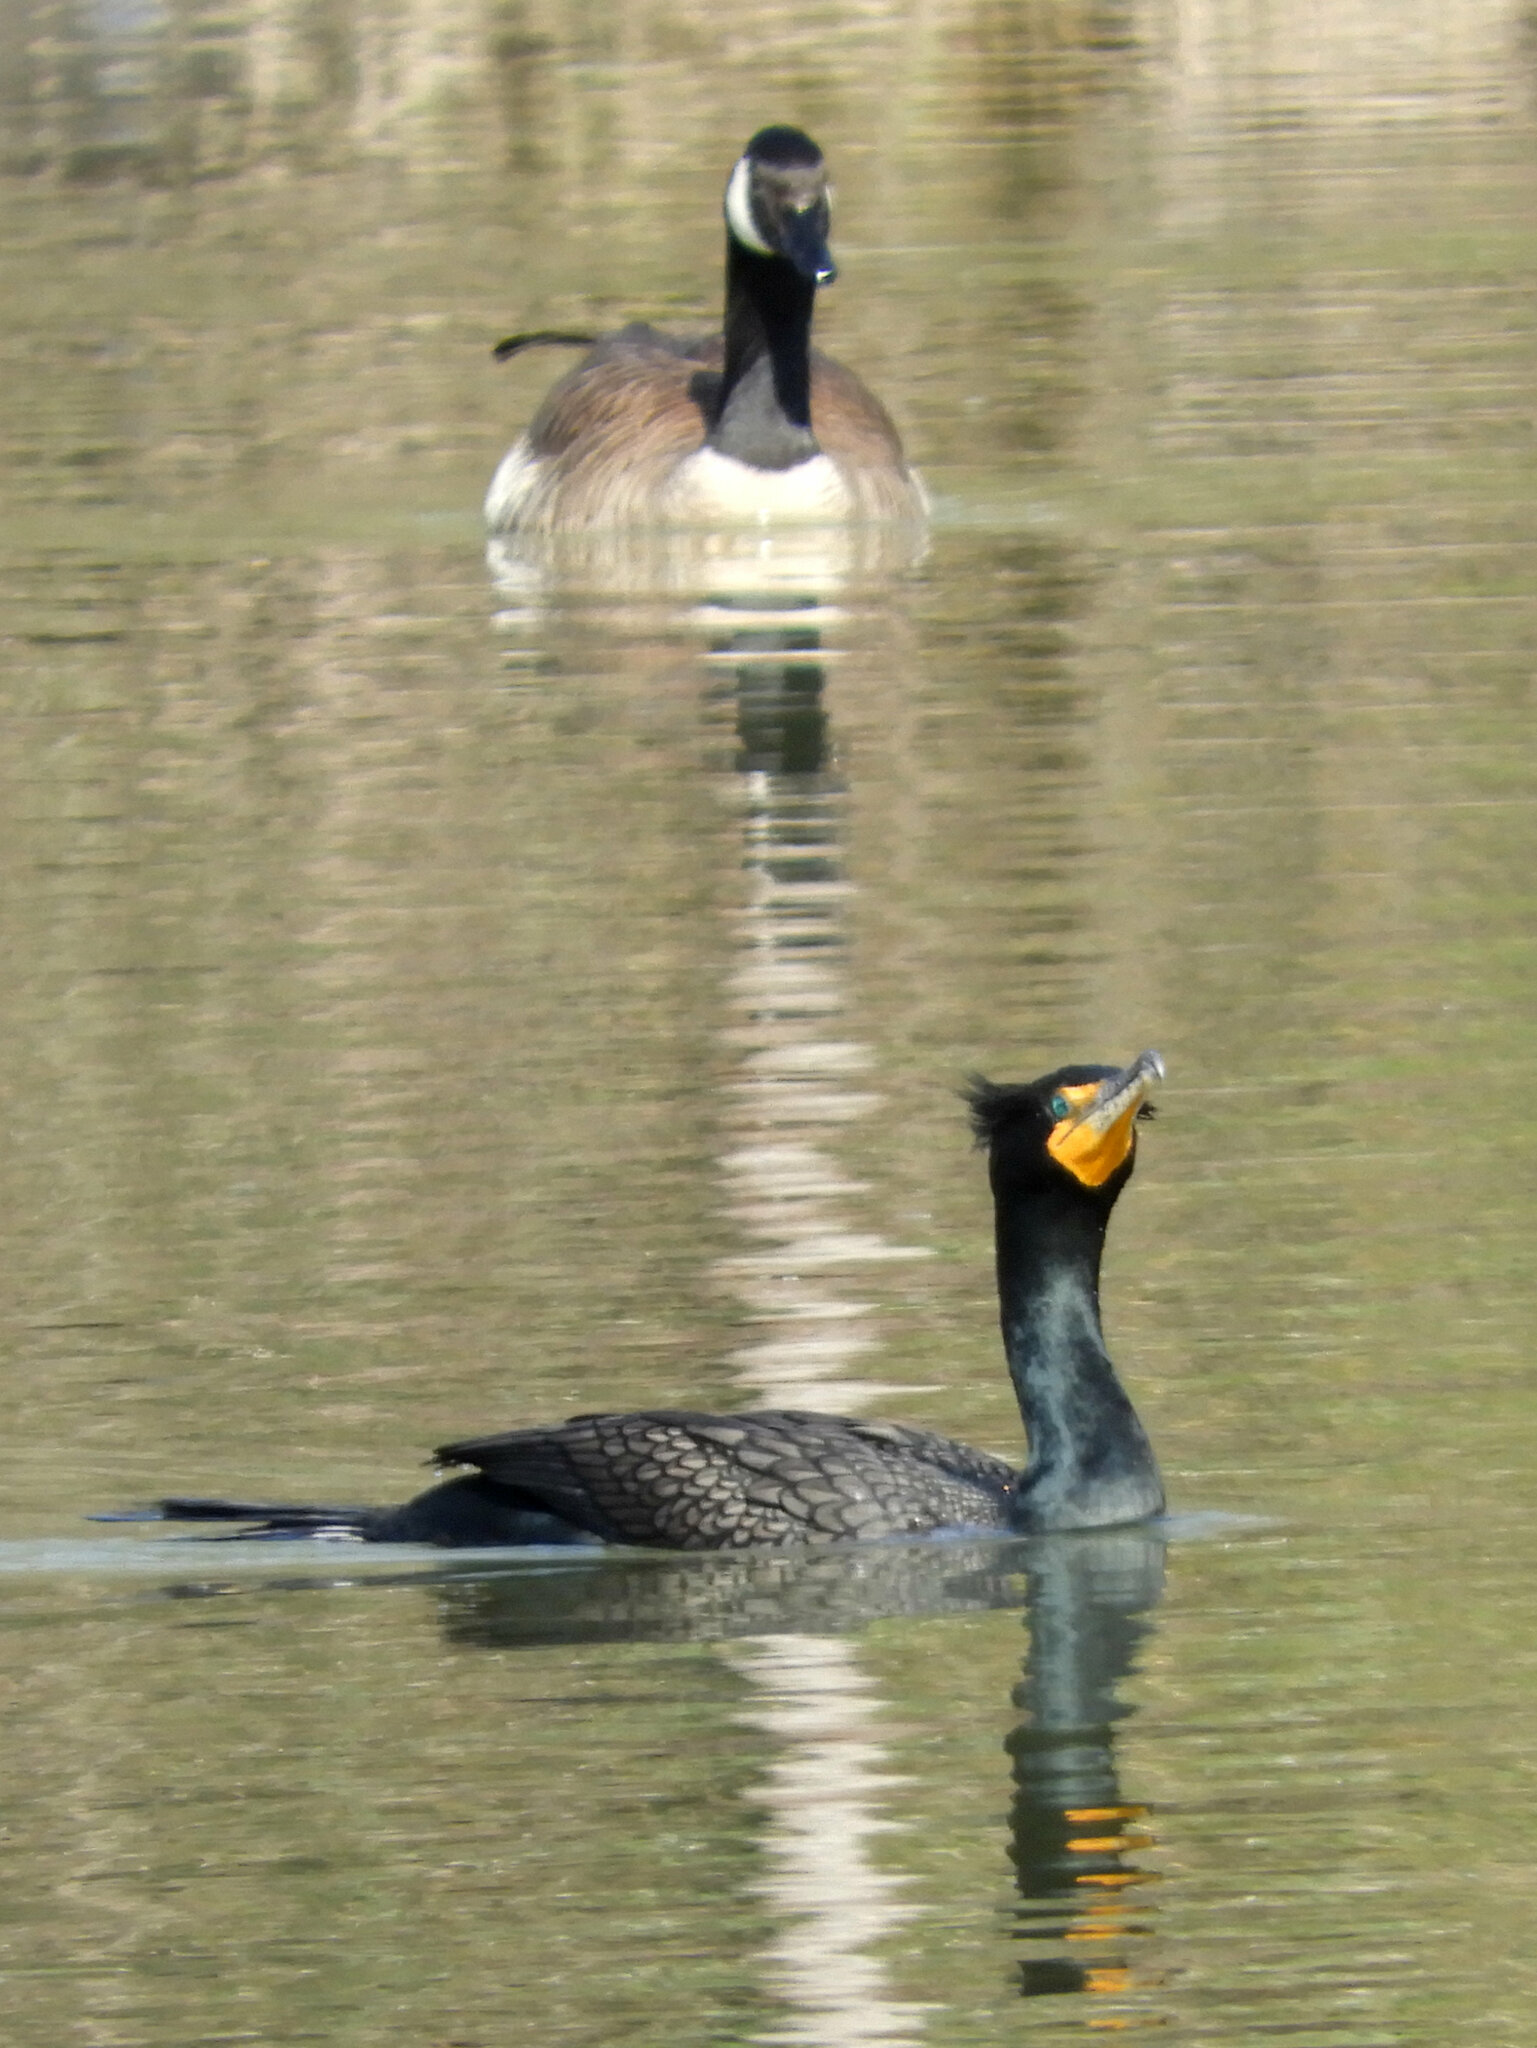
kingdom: Animalia
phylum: Chordata
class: Aves
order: Suliformes
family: Phalacrocoracidae
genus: Phalacrocorax
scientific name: Phalacrocorax auritus
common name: Double-crested cormorant
